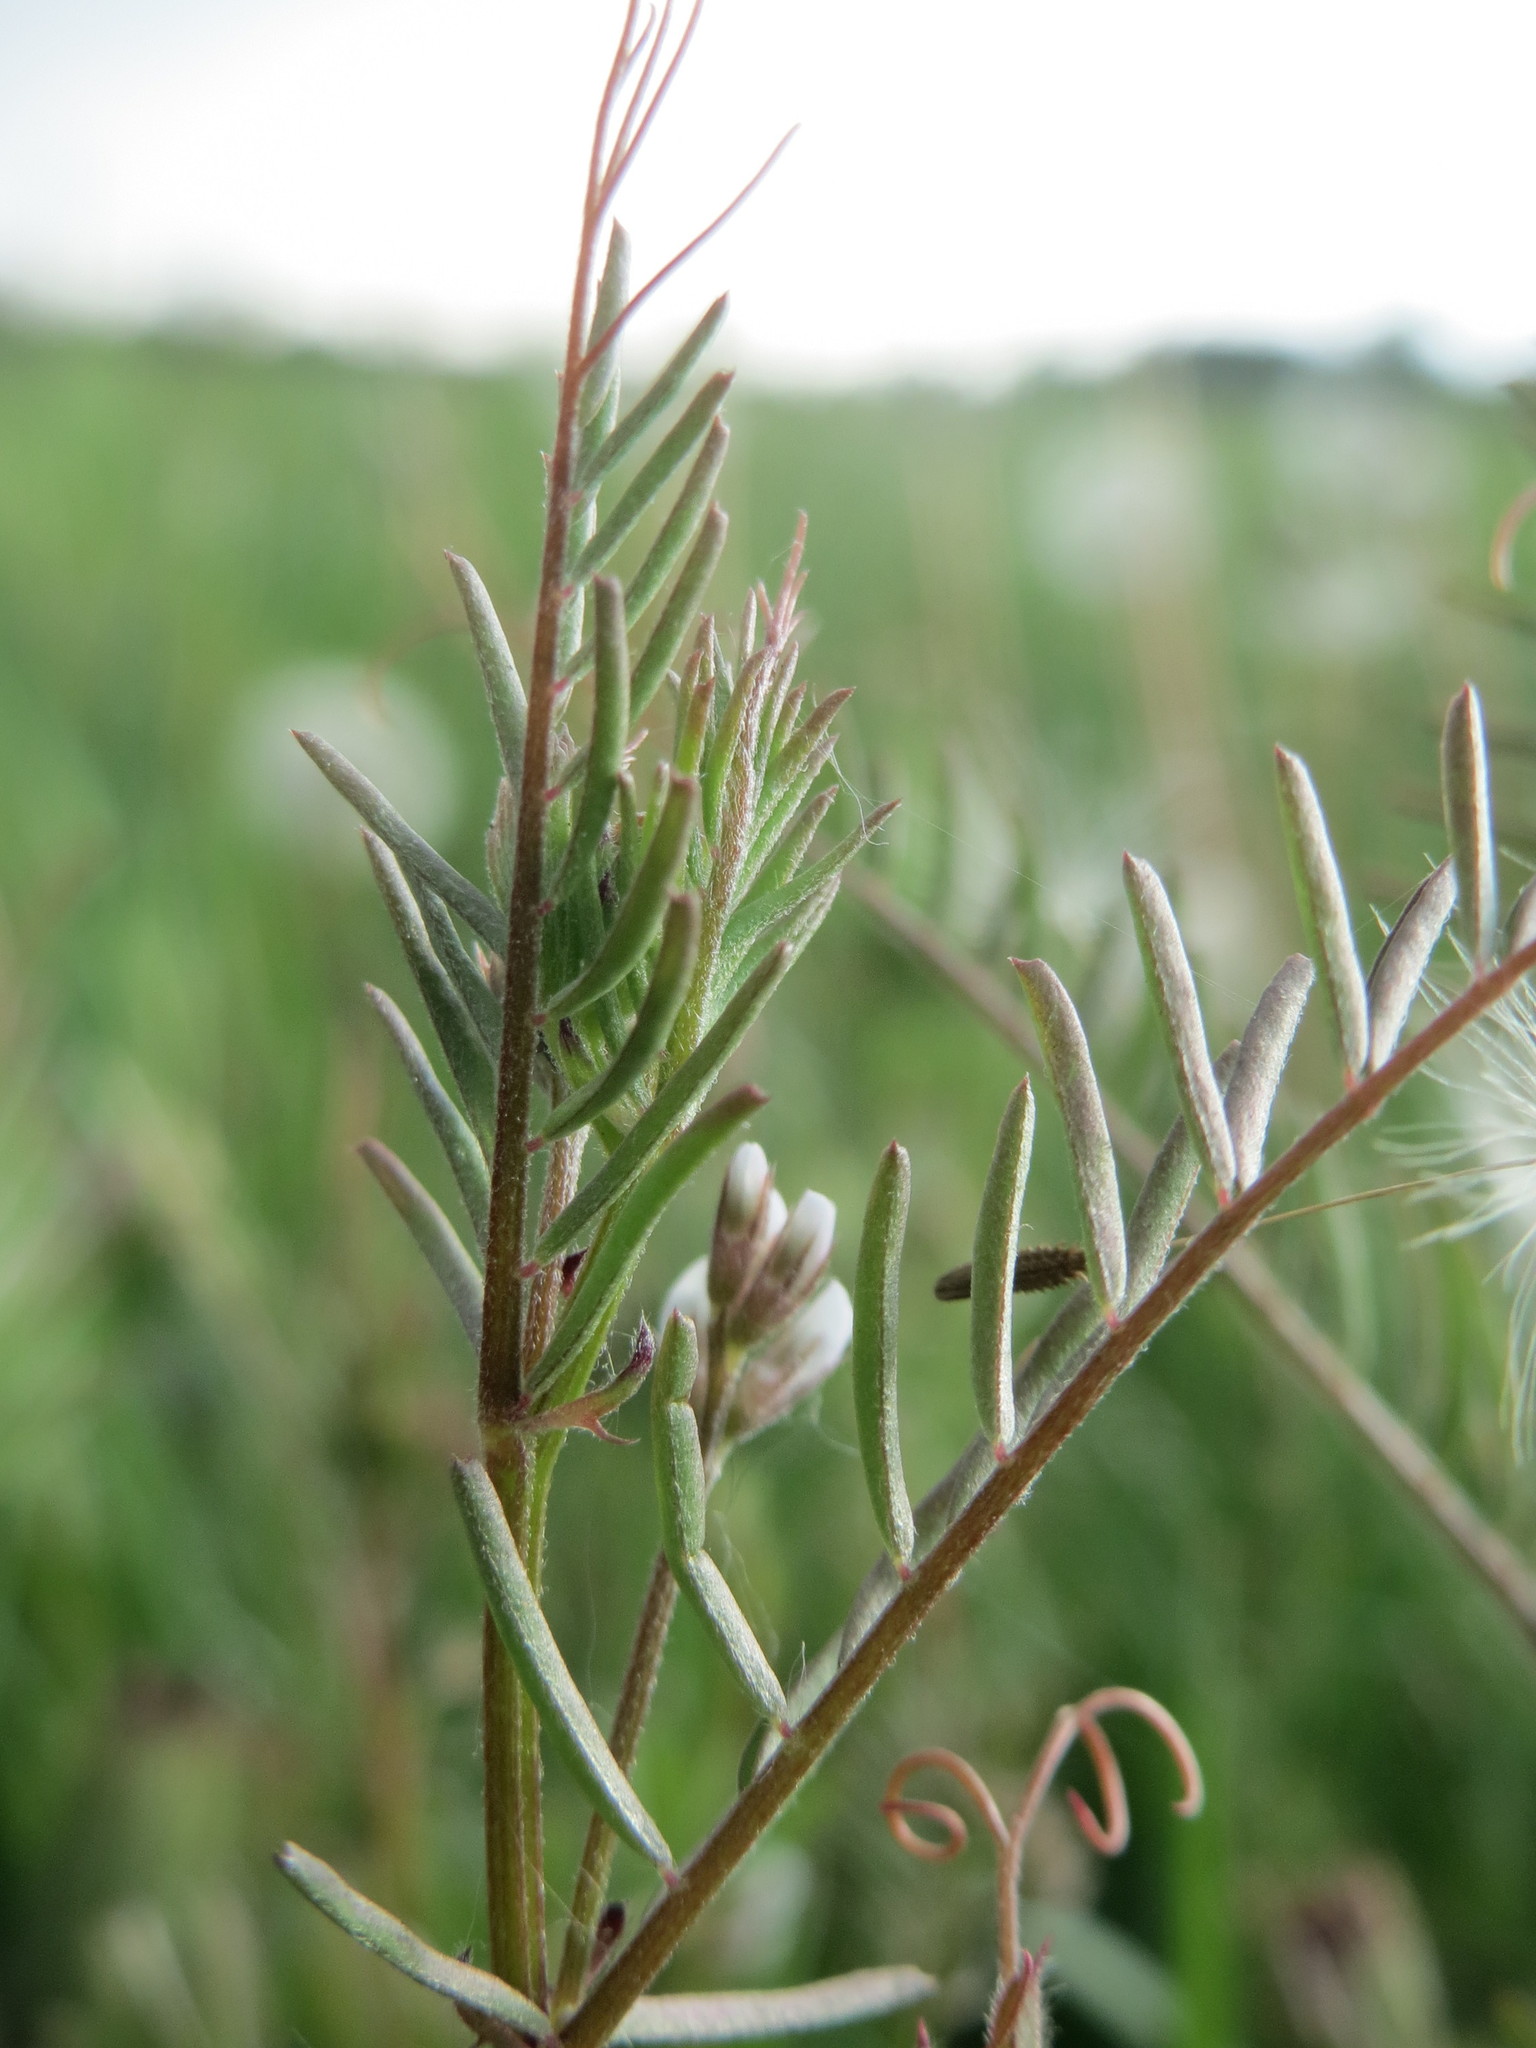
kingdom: Plantae
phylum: Tracheophyta
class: Magnoliopsida
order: Fabales
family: Fabaceae
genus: Vicia
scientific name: Vicia hirsuta
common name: Tiny vetch
